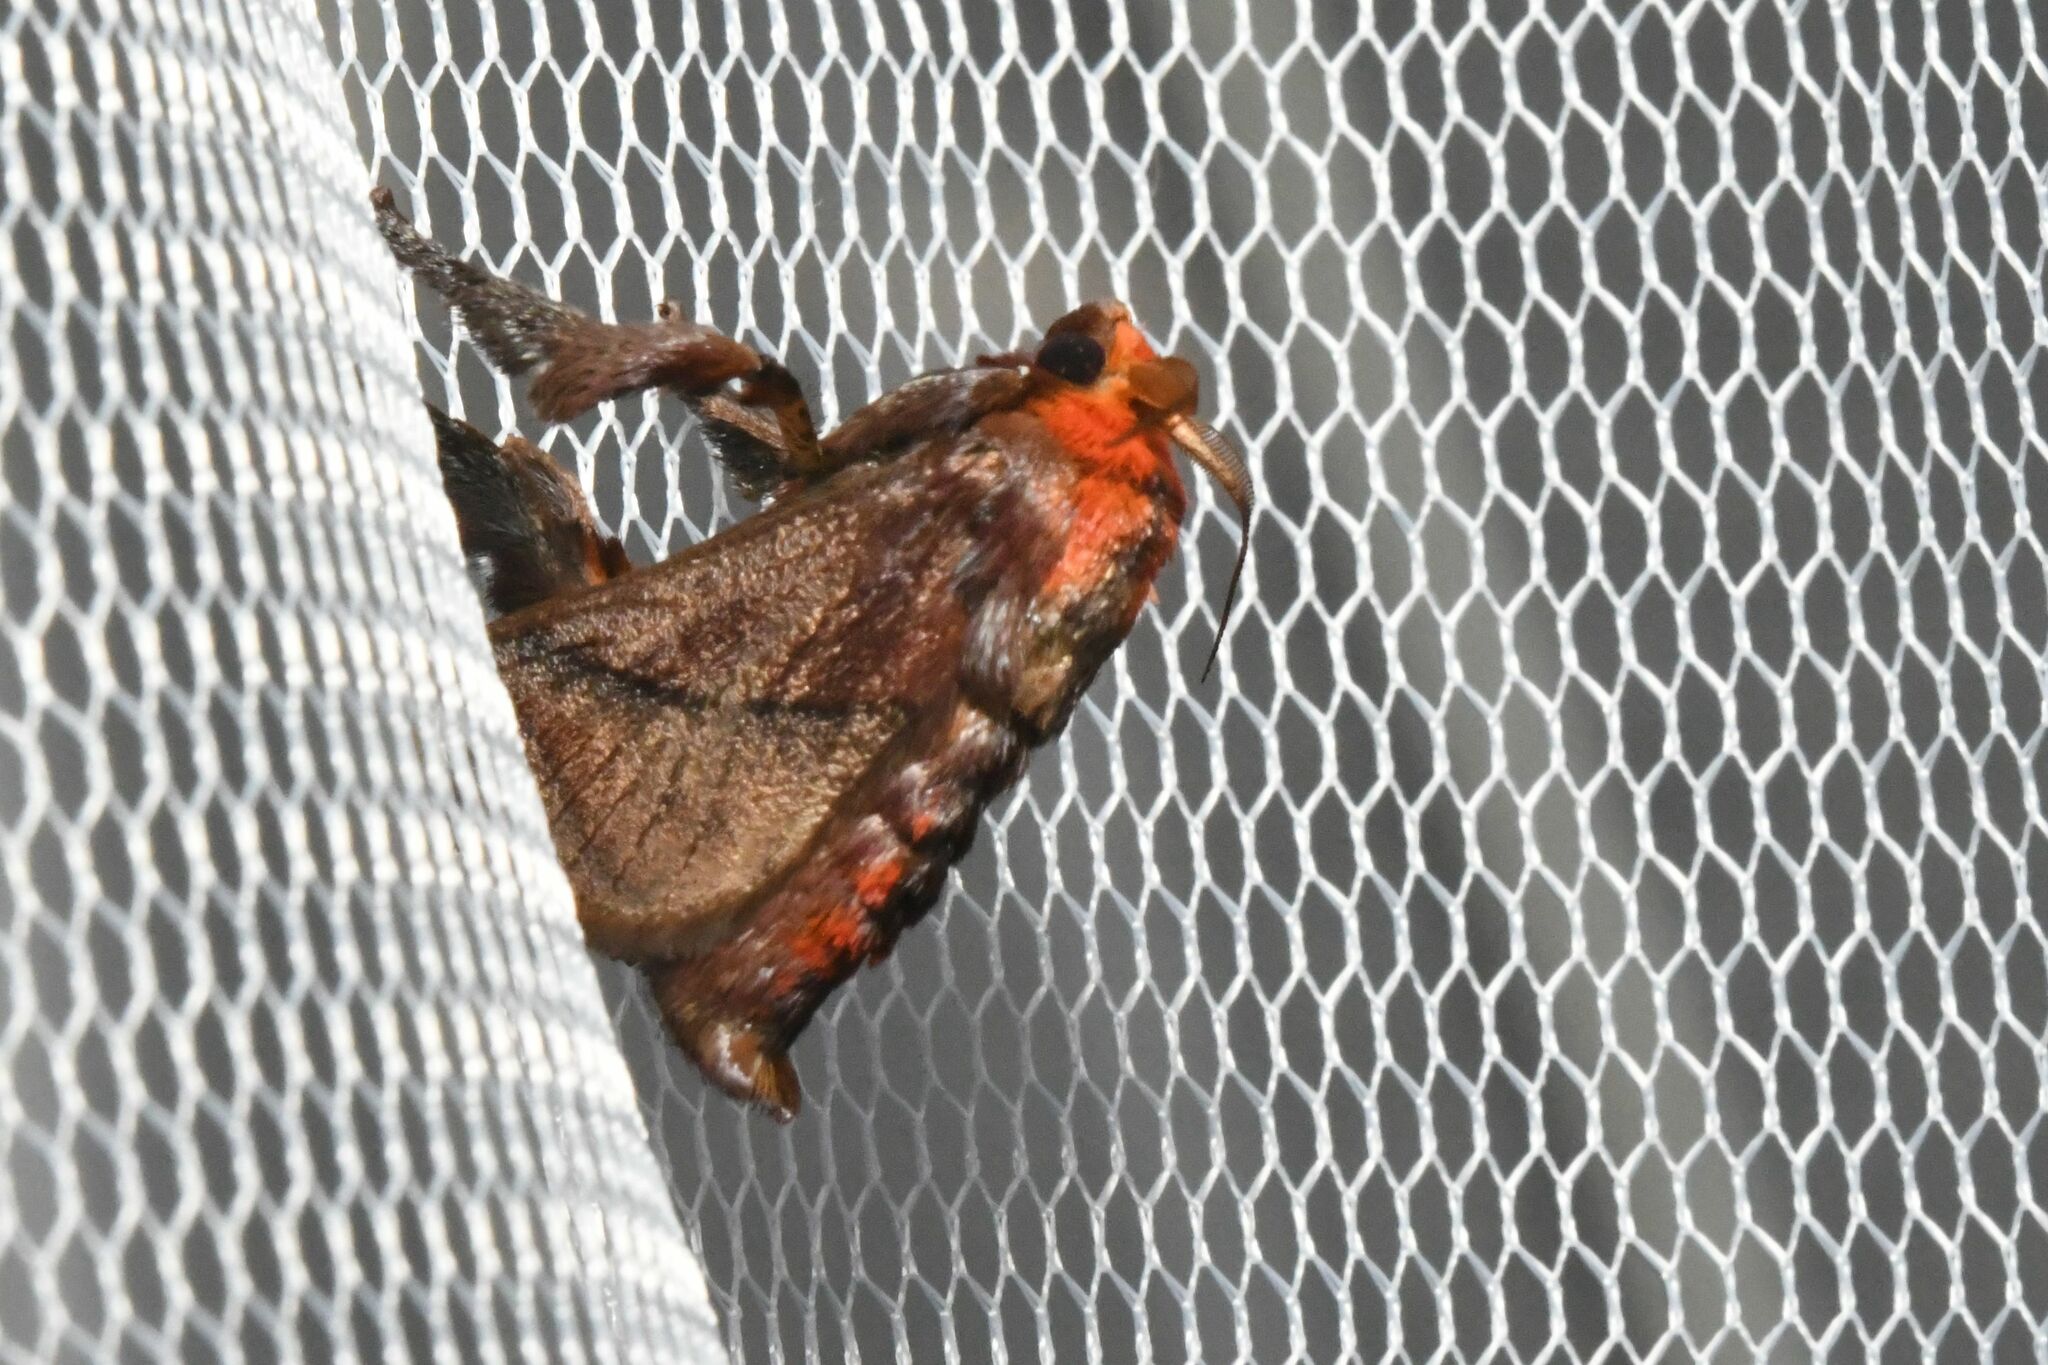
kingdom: Animalia
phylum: Arthropoda
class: Insecta
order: Lepidoptera
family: Limacodidae
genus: Phorma
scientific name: Phorma pepon
